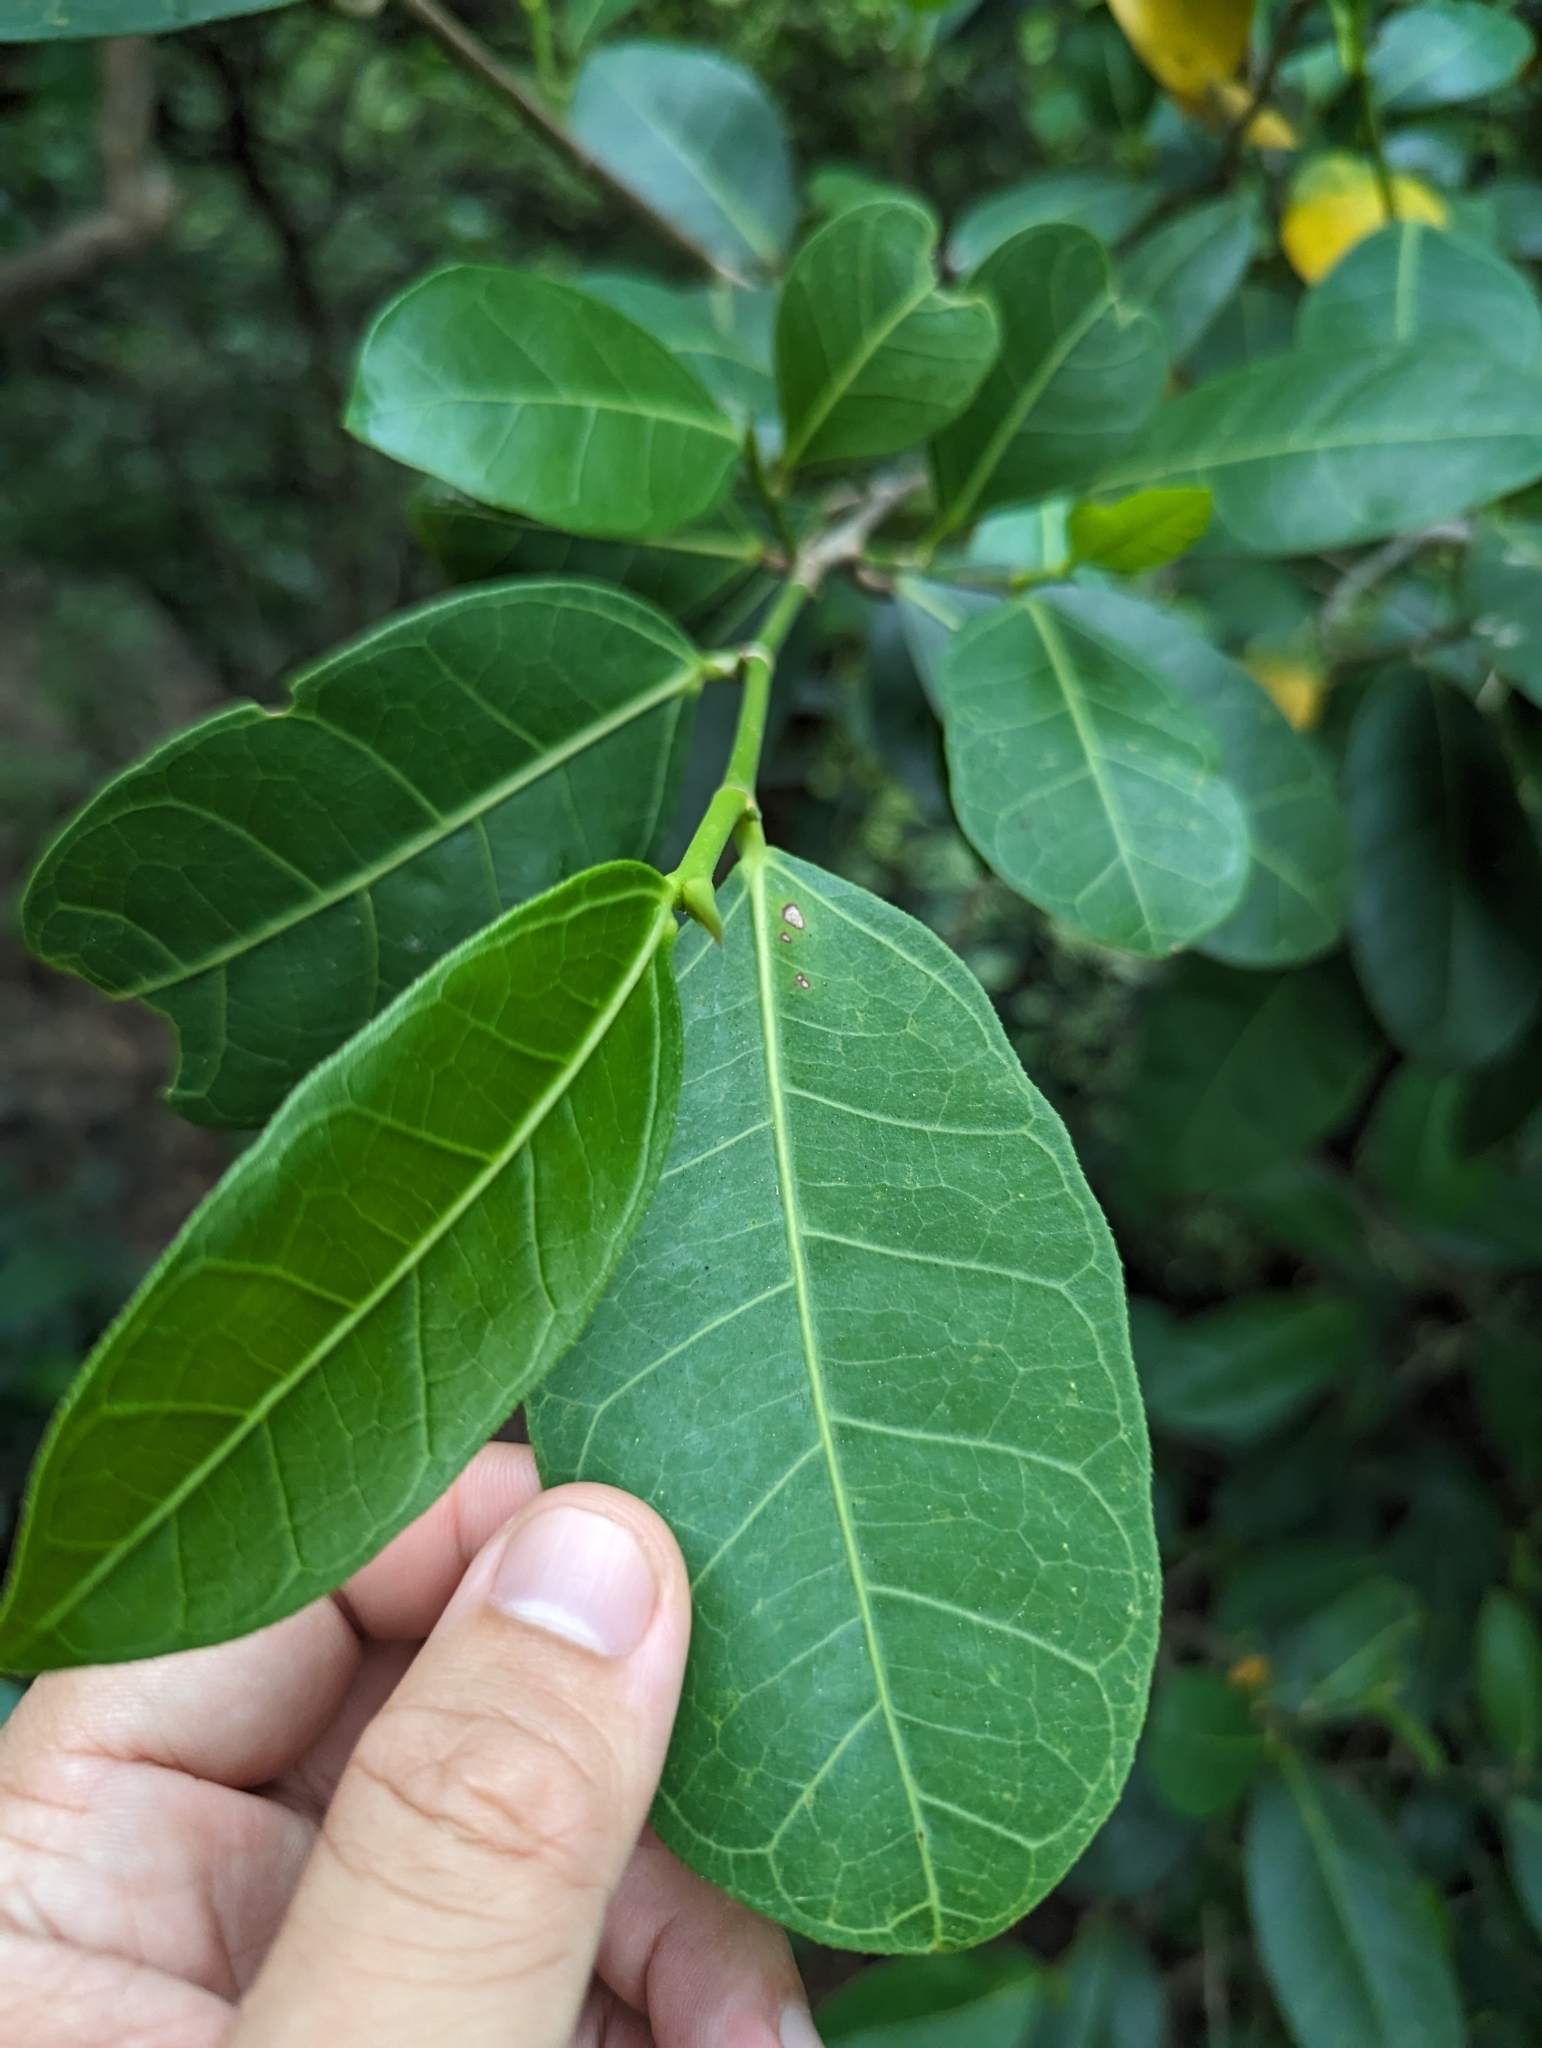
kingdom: Plantae
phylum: Tracheophyta
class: Magnoliopsida
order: Rosales
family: Moraceae
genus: Ficus
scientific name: Ficus tinctoria
